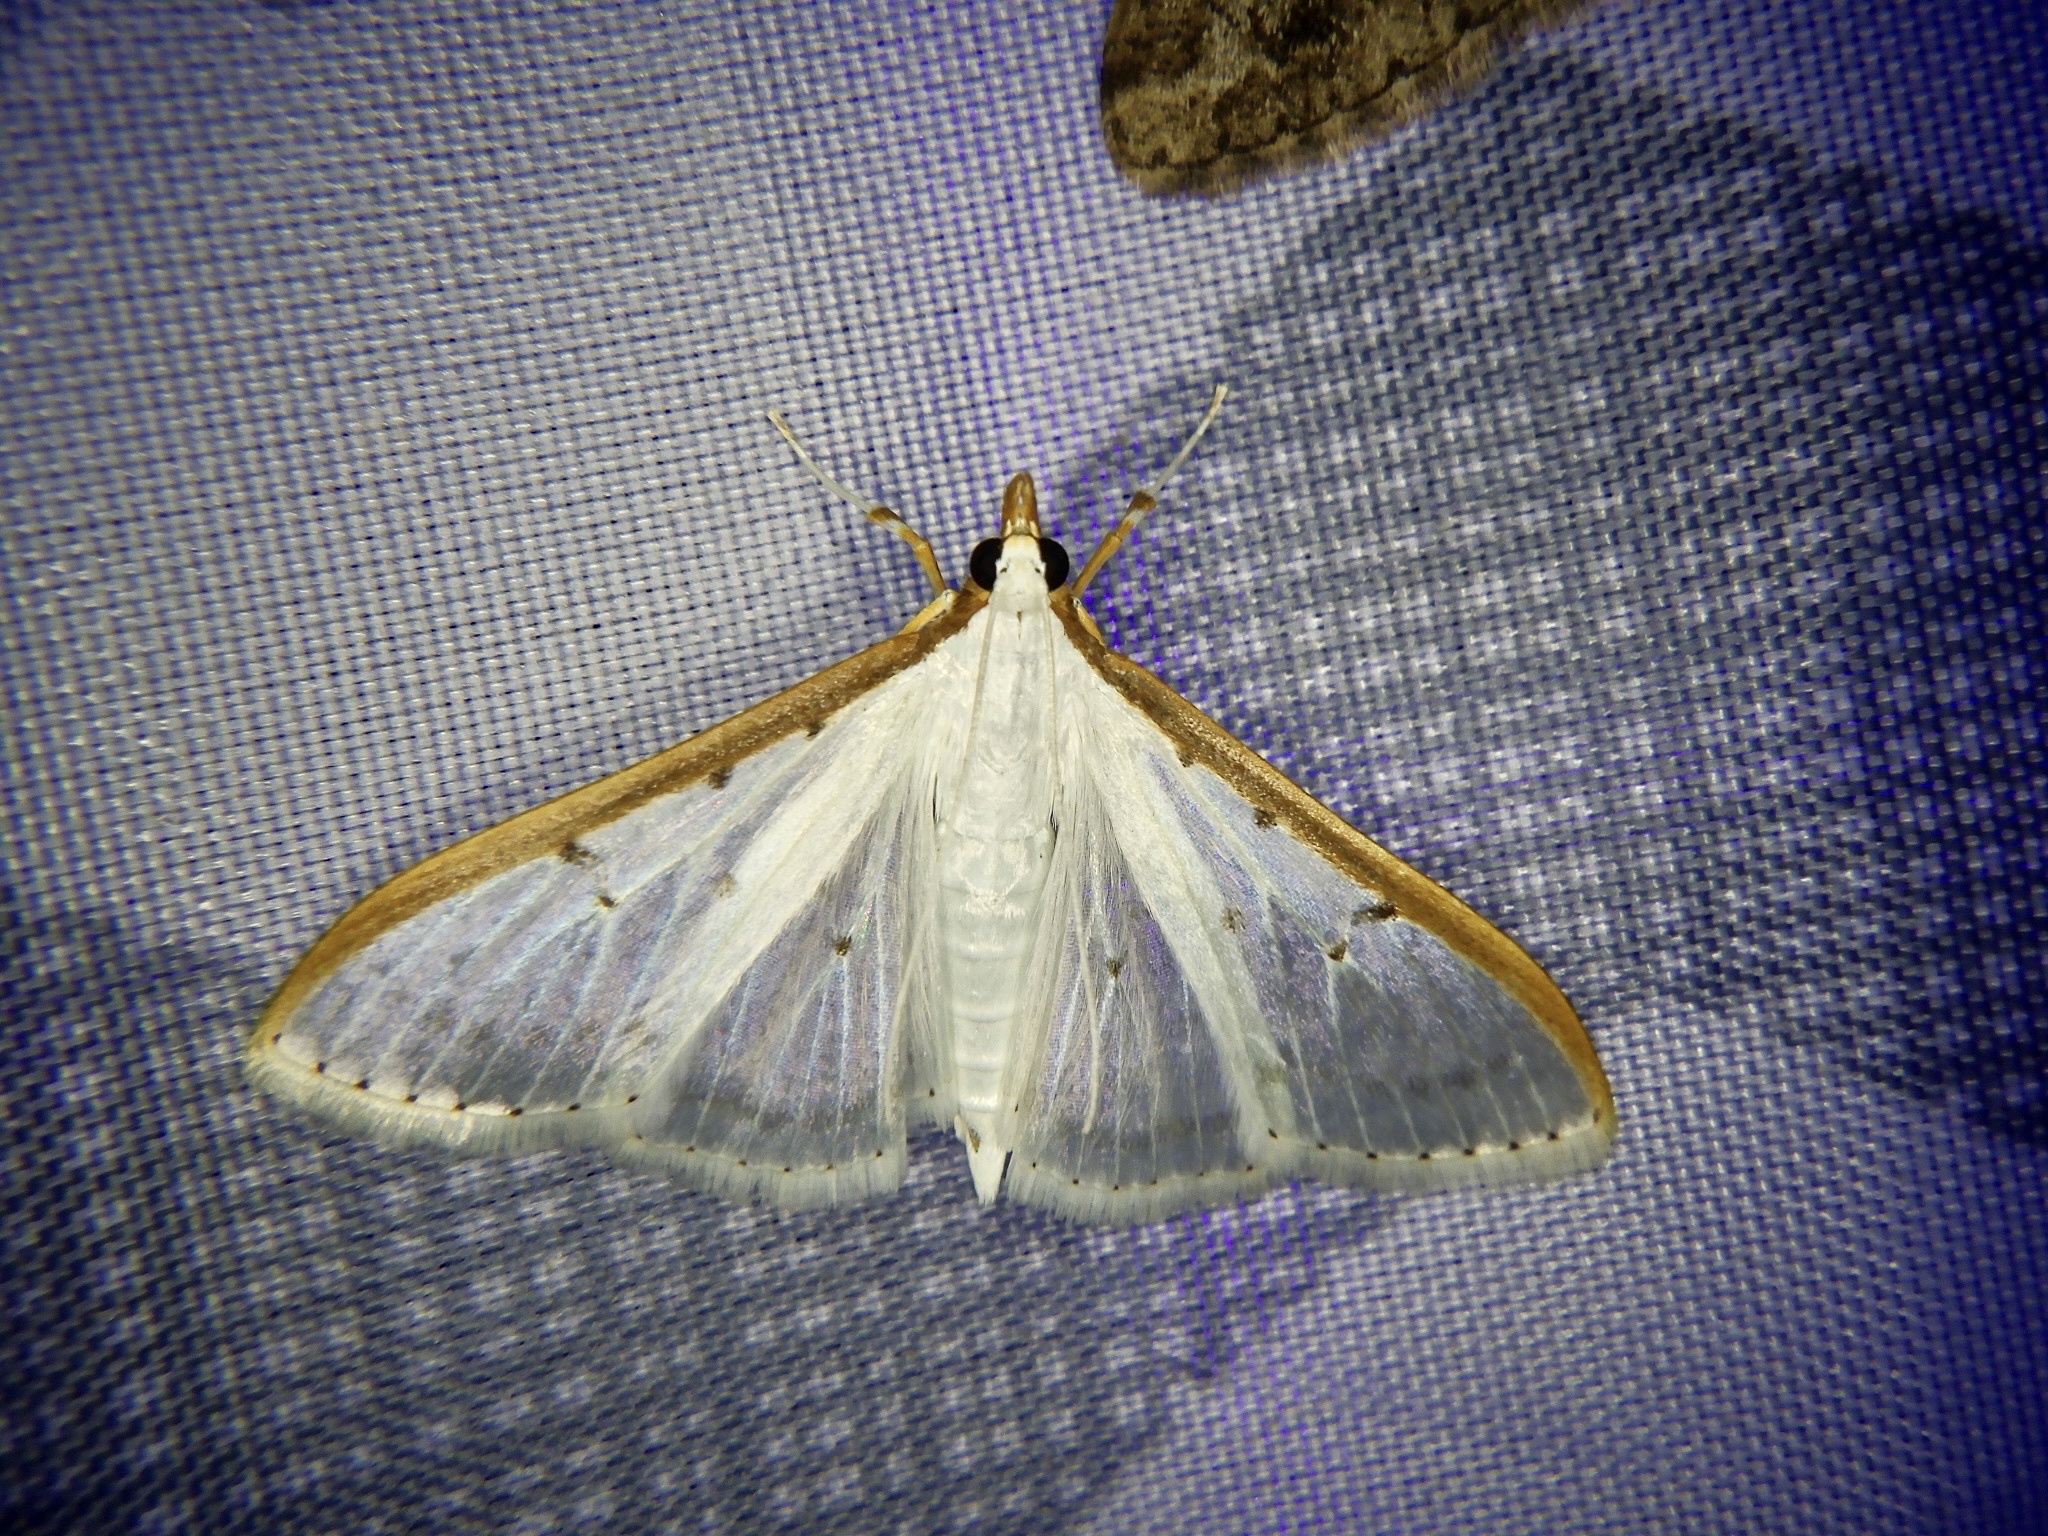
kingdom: Animalia
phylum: Arthropoda
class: Insecta
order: Lepidoptera
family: Crambidae
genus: Palpita
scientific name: Palpita nigropunctalis
